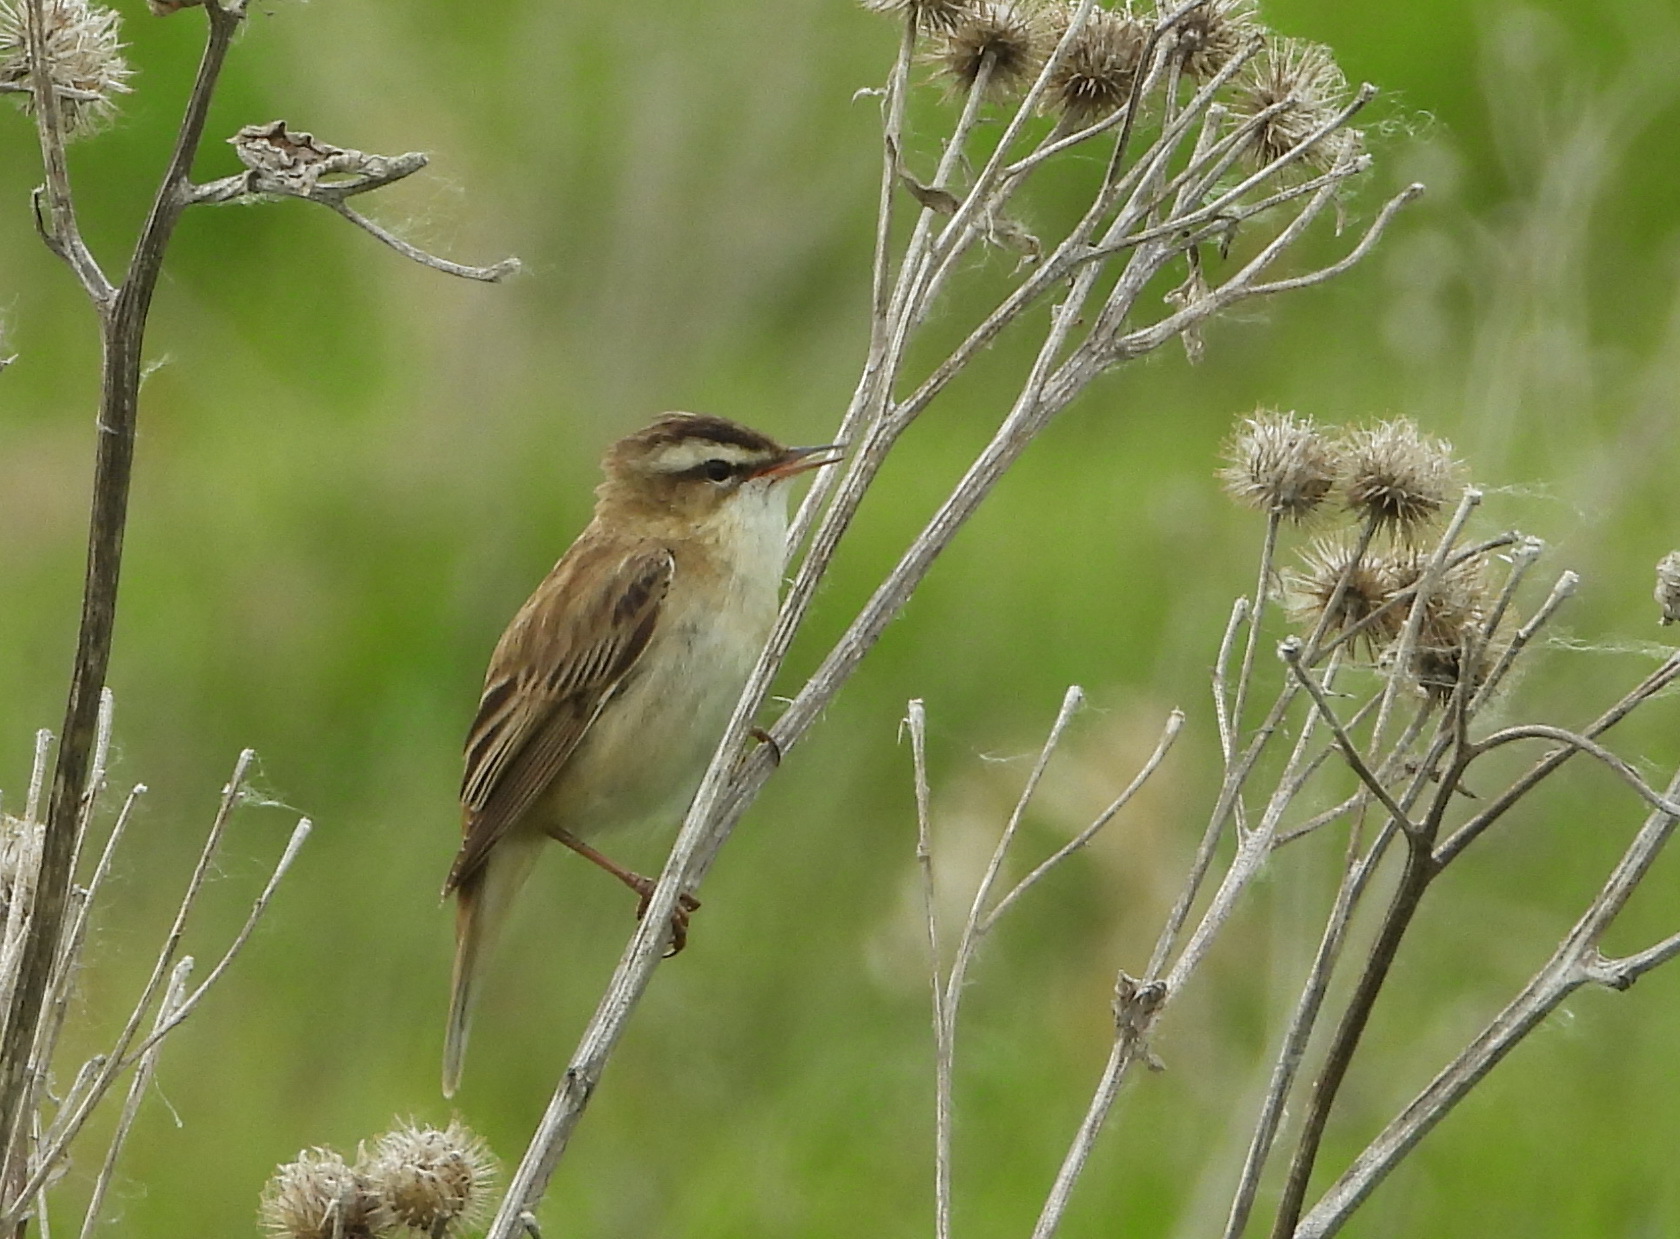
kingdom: Animalia
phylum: Chordata
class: Aves
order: Passeriformes
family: Acrocephalidae
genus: Acrocephalus
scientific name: Acrocephalus schoenobaenus
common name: Sedge warbler
